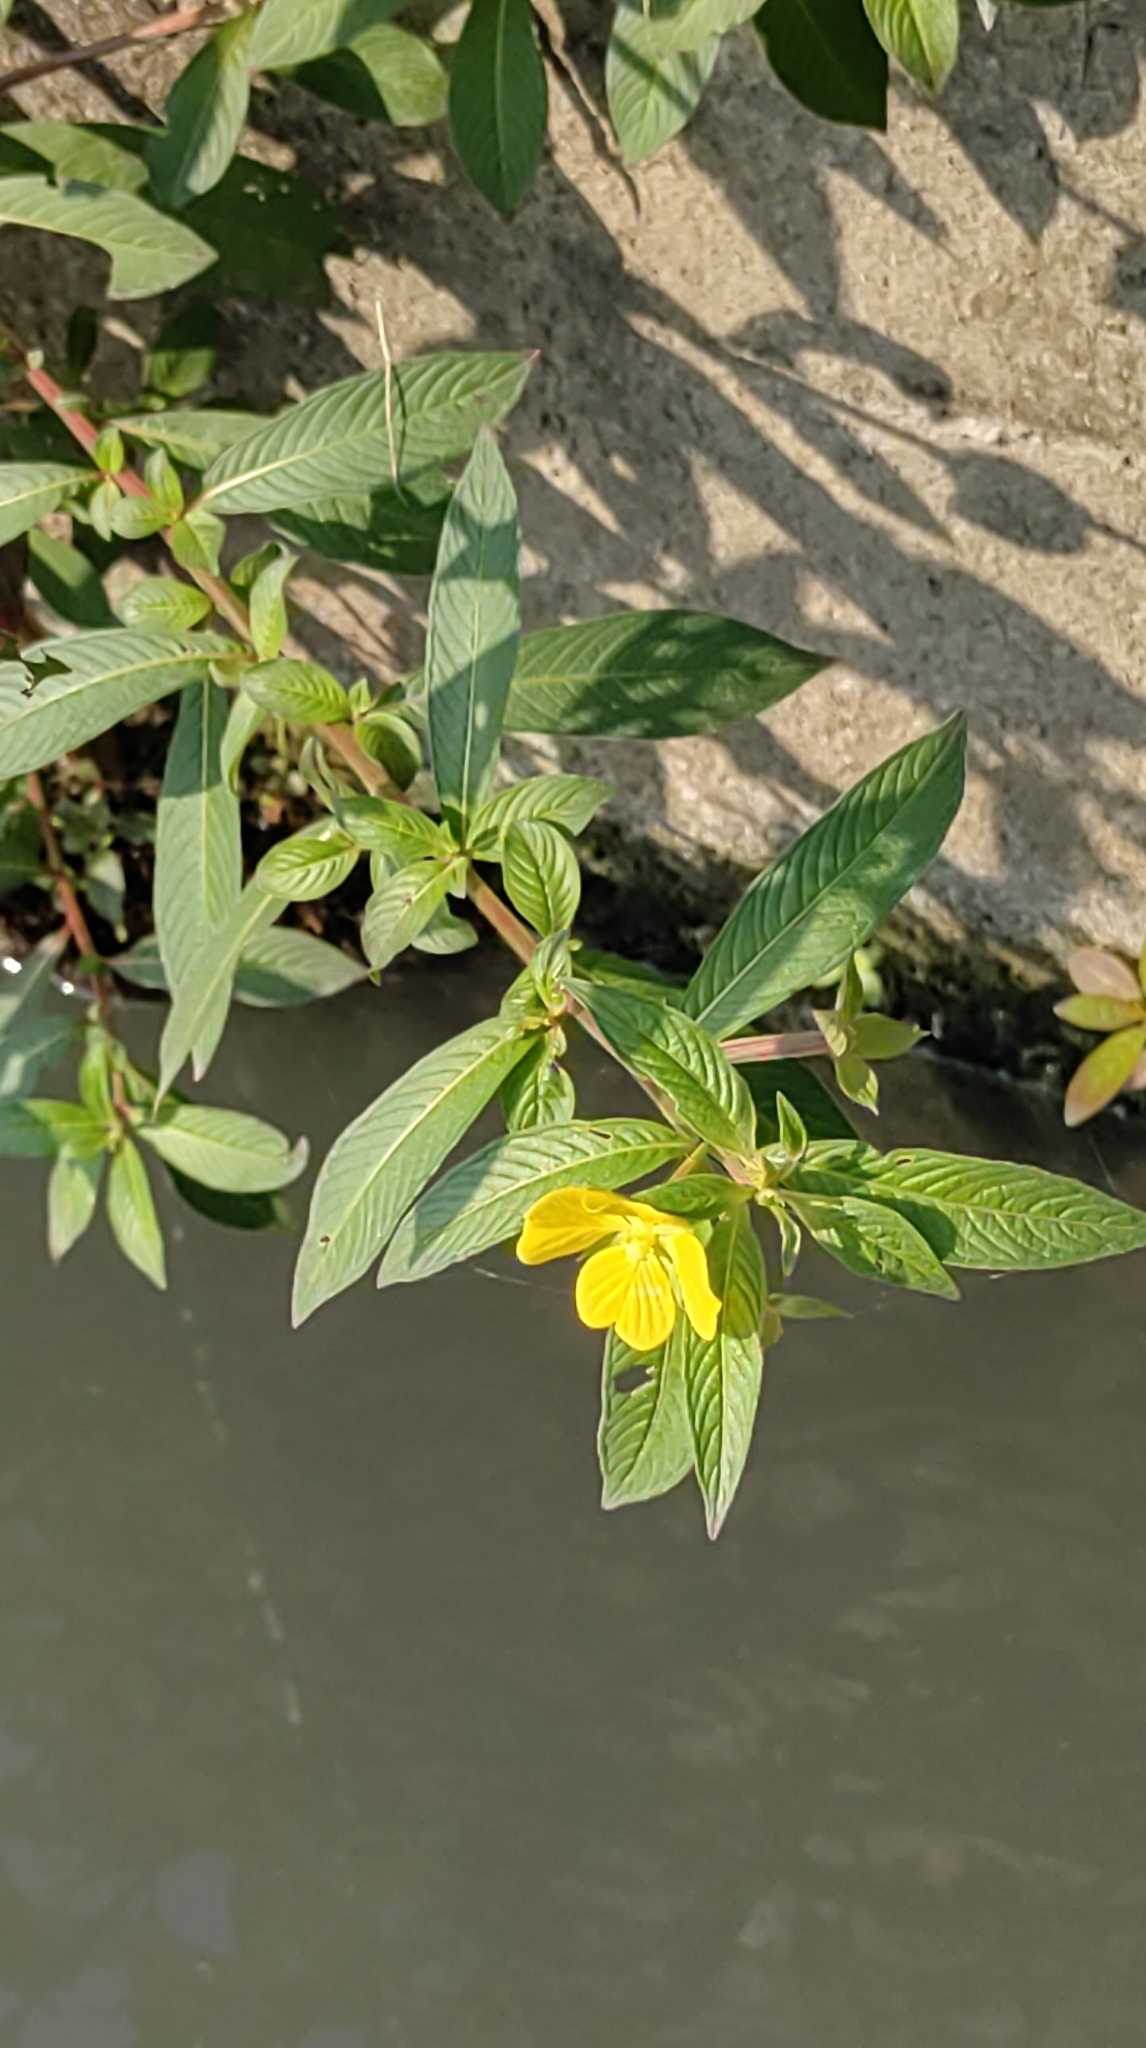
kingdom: Plantae
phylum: Tracheophyta
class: Magnoliopsida
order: Myrtales
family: Onagraceae
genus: Ludwigia
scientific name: Ludwigia octovalvis
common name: Water-primrose
